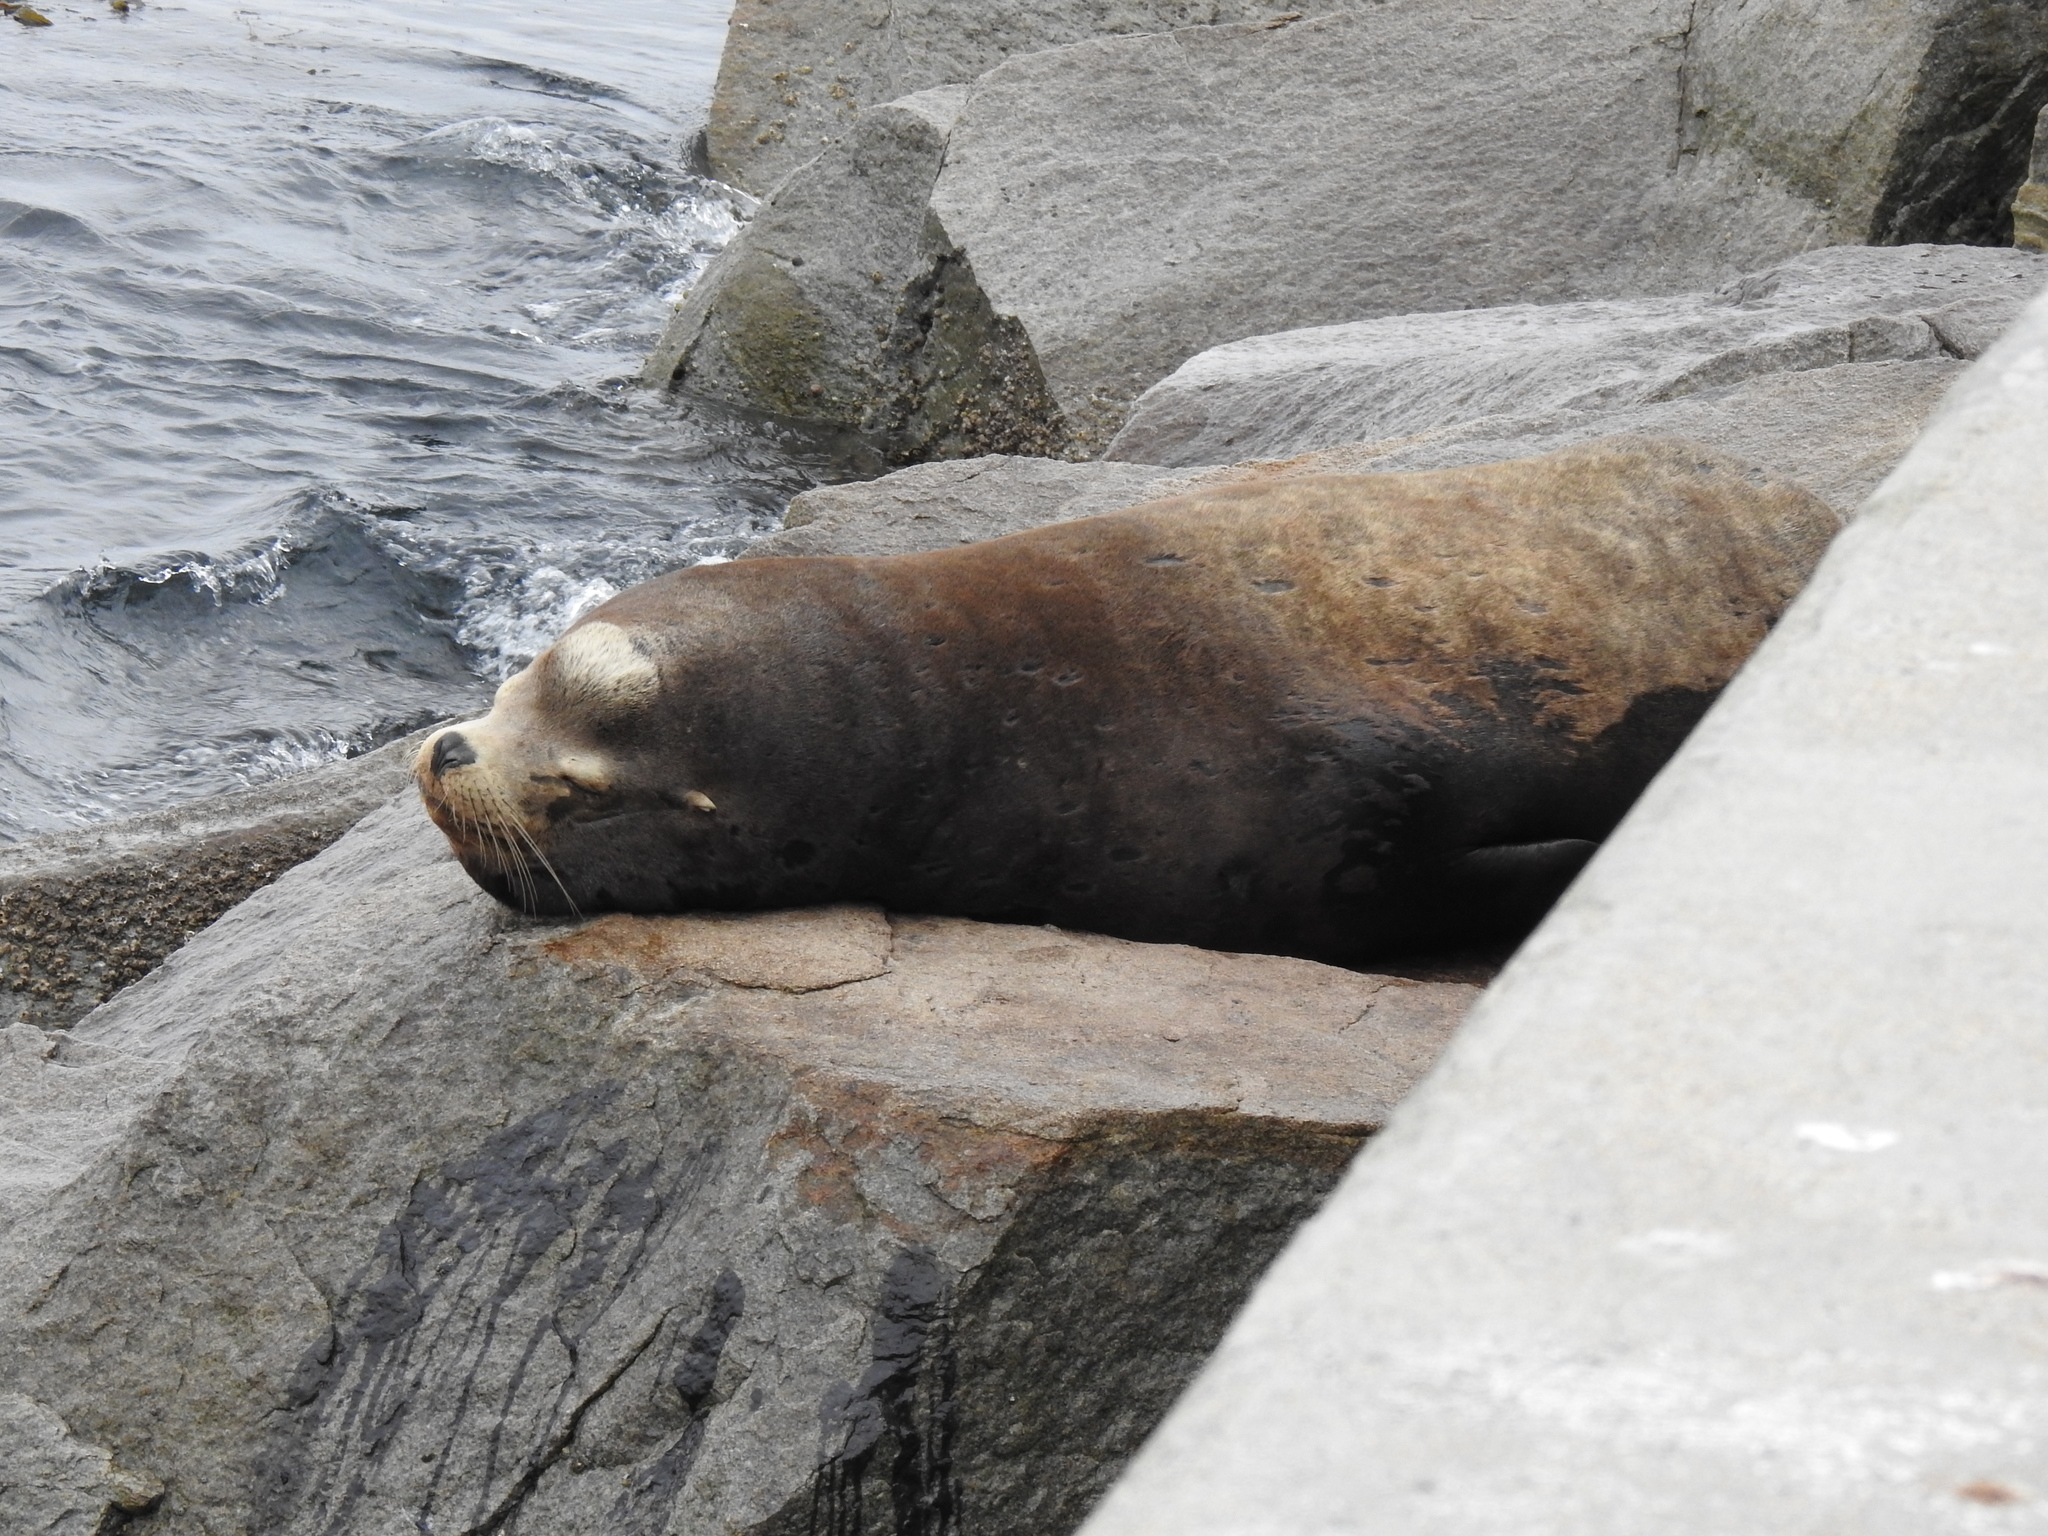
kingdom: Animalia
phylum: Chordata
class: Mammalia
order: Carnivora
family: Otariidae
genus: Zalophus
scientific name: Zalophus californianus
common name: California sea lion
